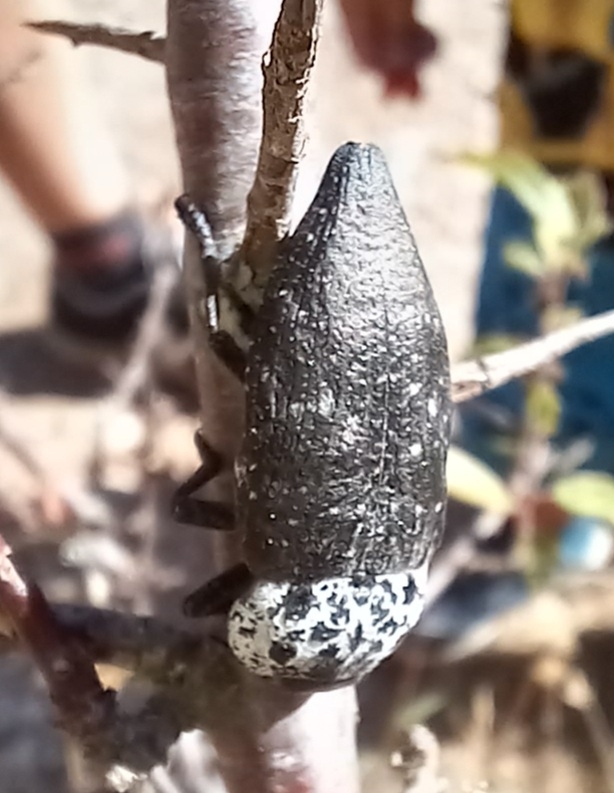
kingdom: Animalia
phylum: Arthropoda
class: Insecta
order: Coleoptera
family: Buprestidae
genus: Capnodis
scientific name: Capnodis tenebrionis
